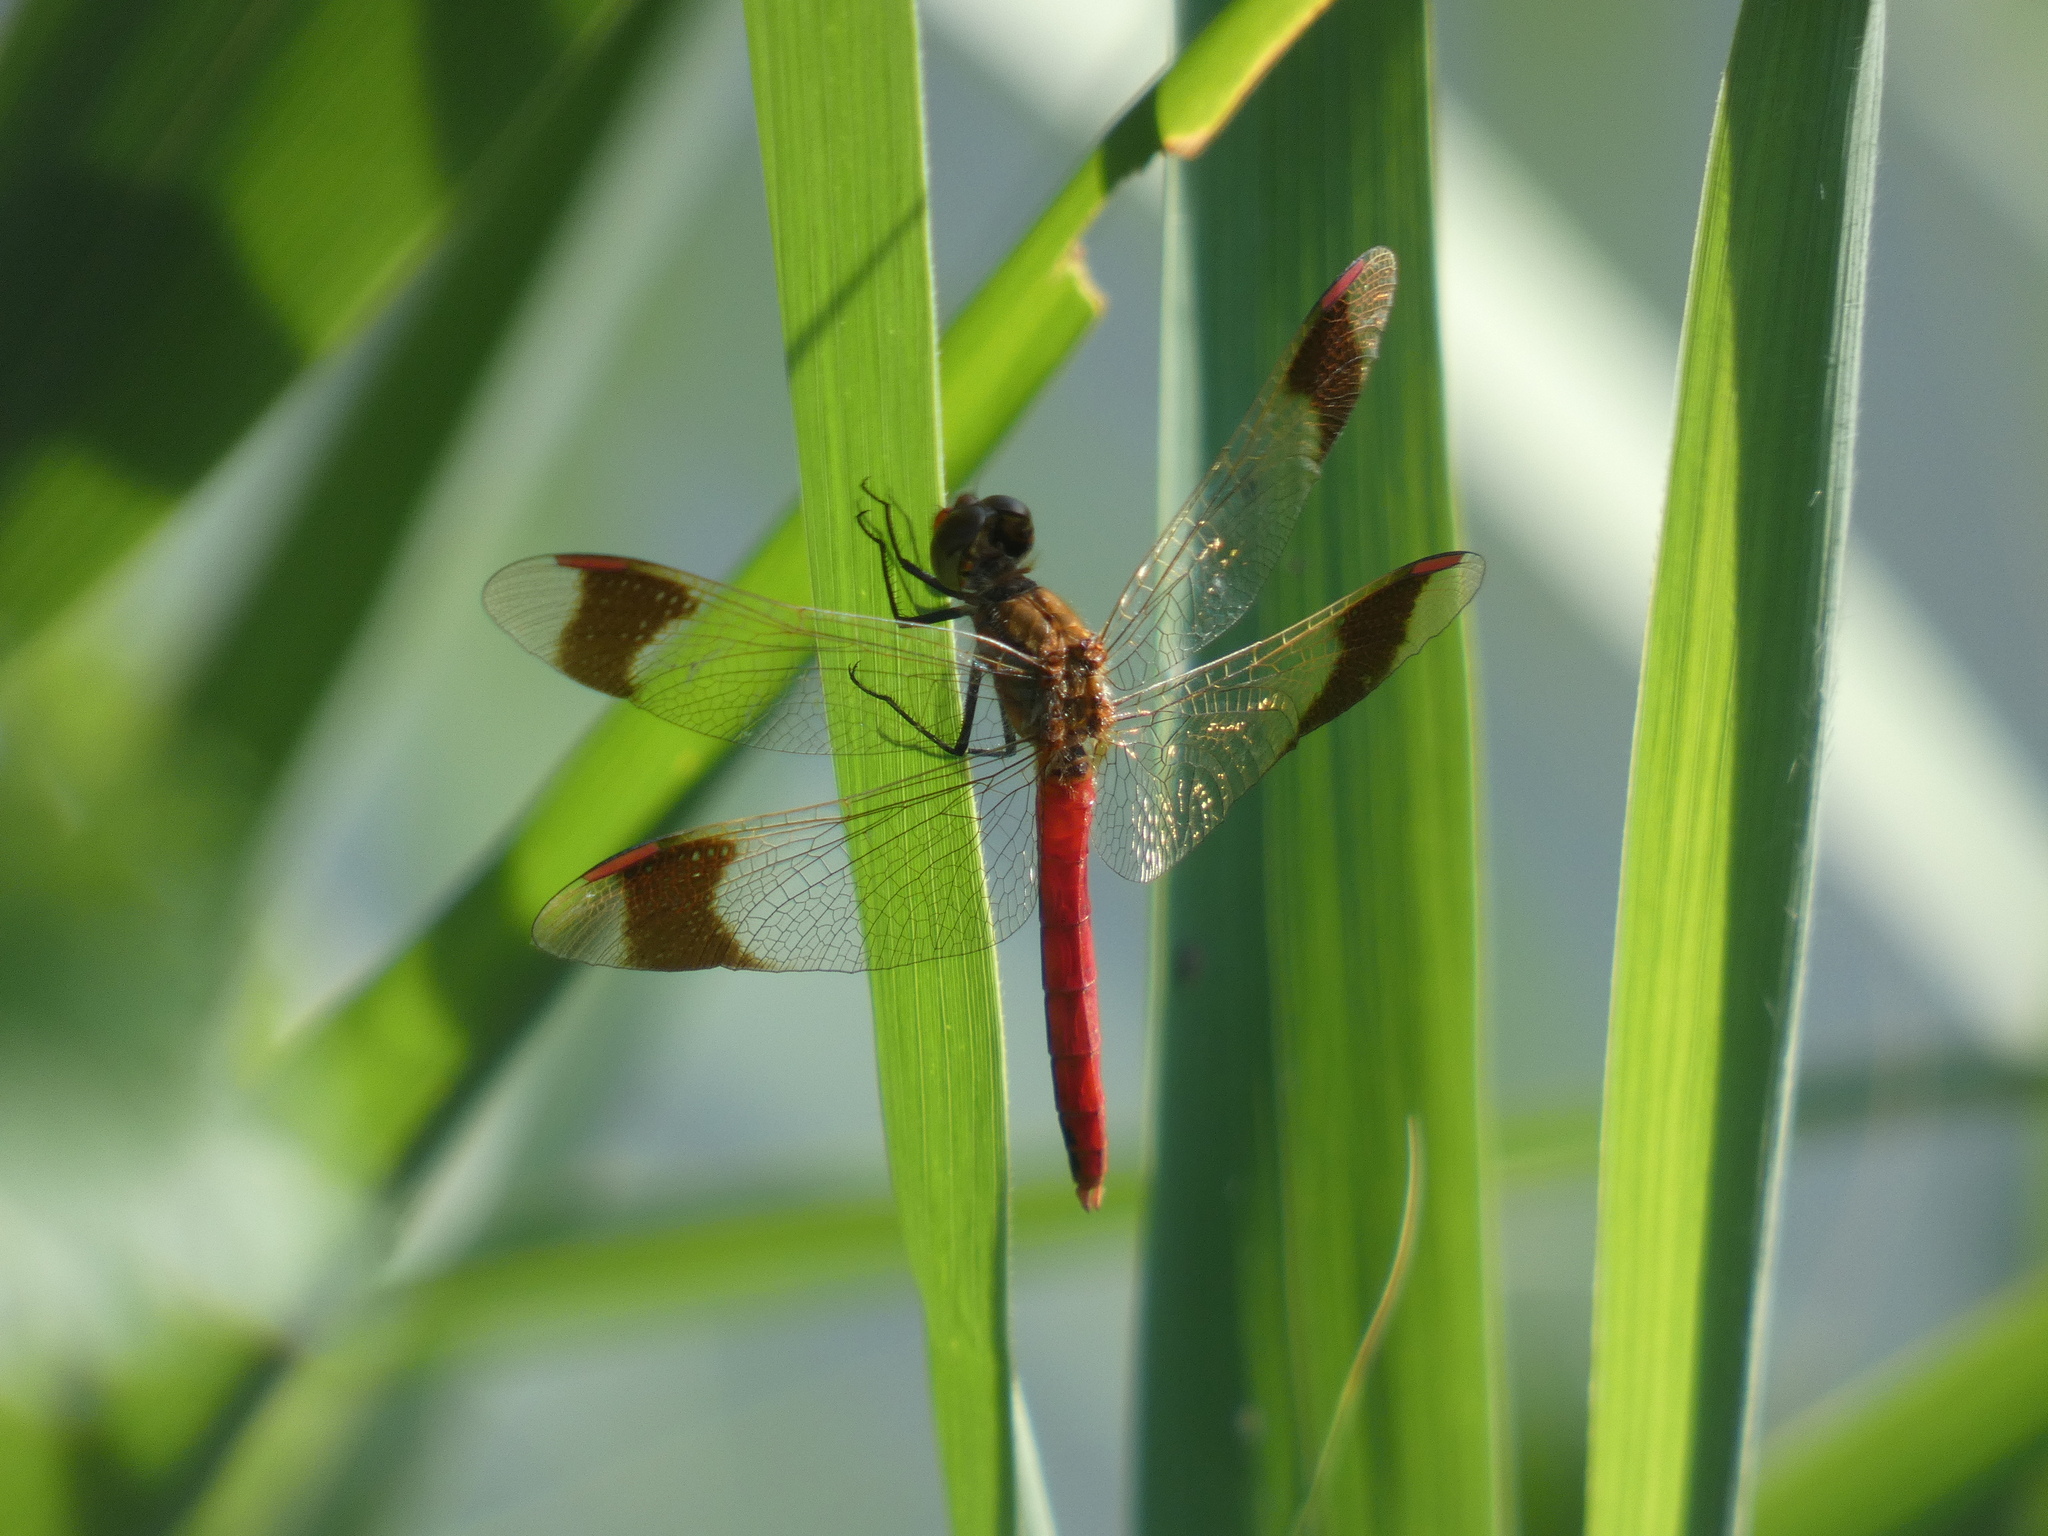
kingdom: Animalia
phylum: Arthropoda
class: Insecta
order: Odonata
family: Libellulidae
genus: Sympetrum
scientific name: Sympetrum pedemontanum
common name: Banded darter
